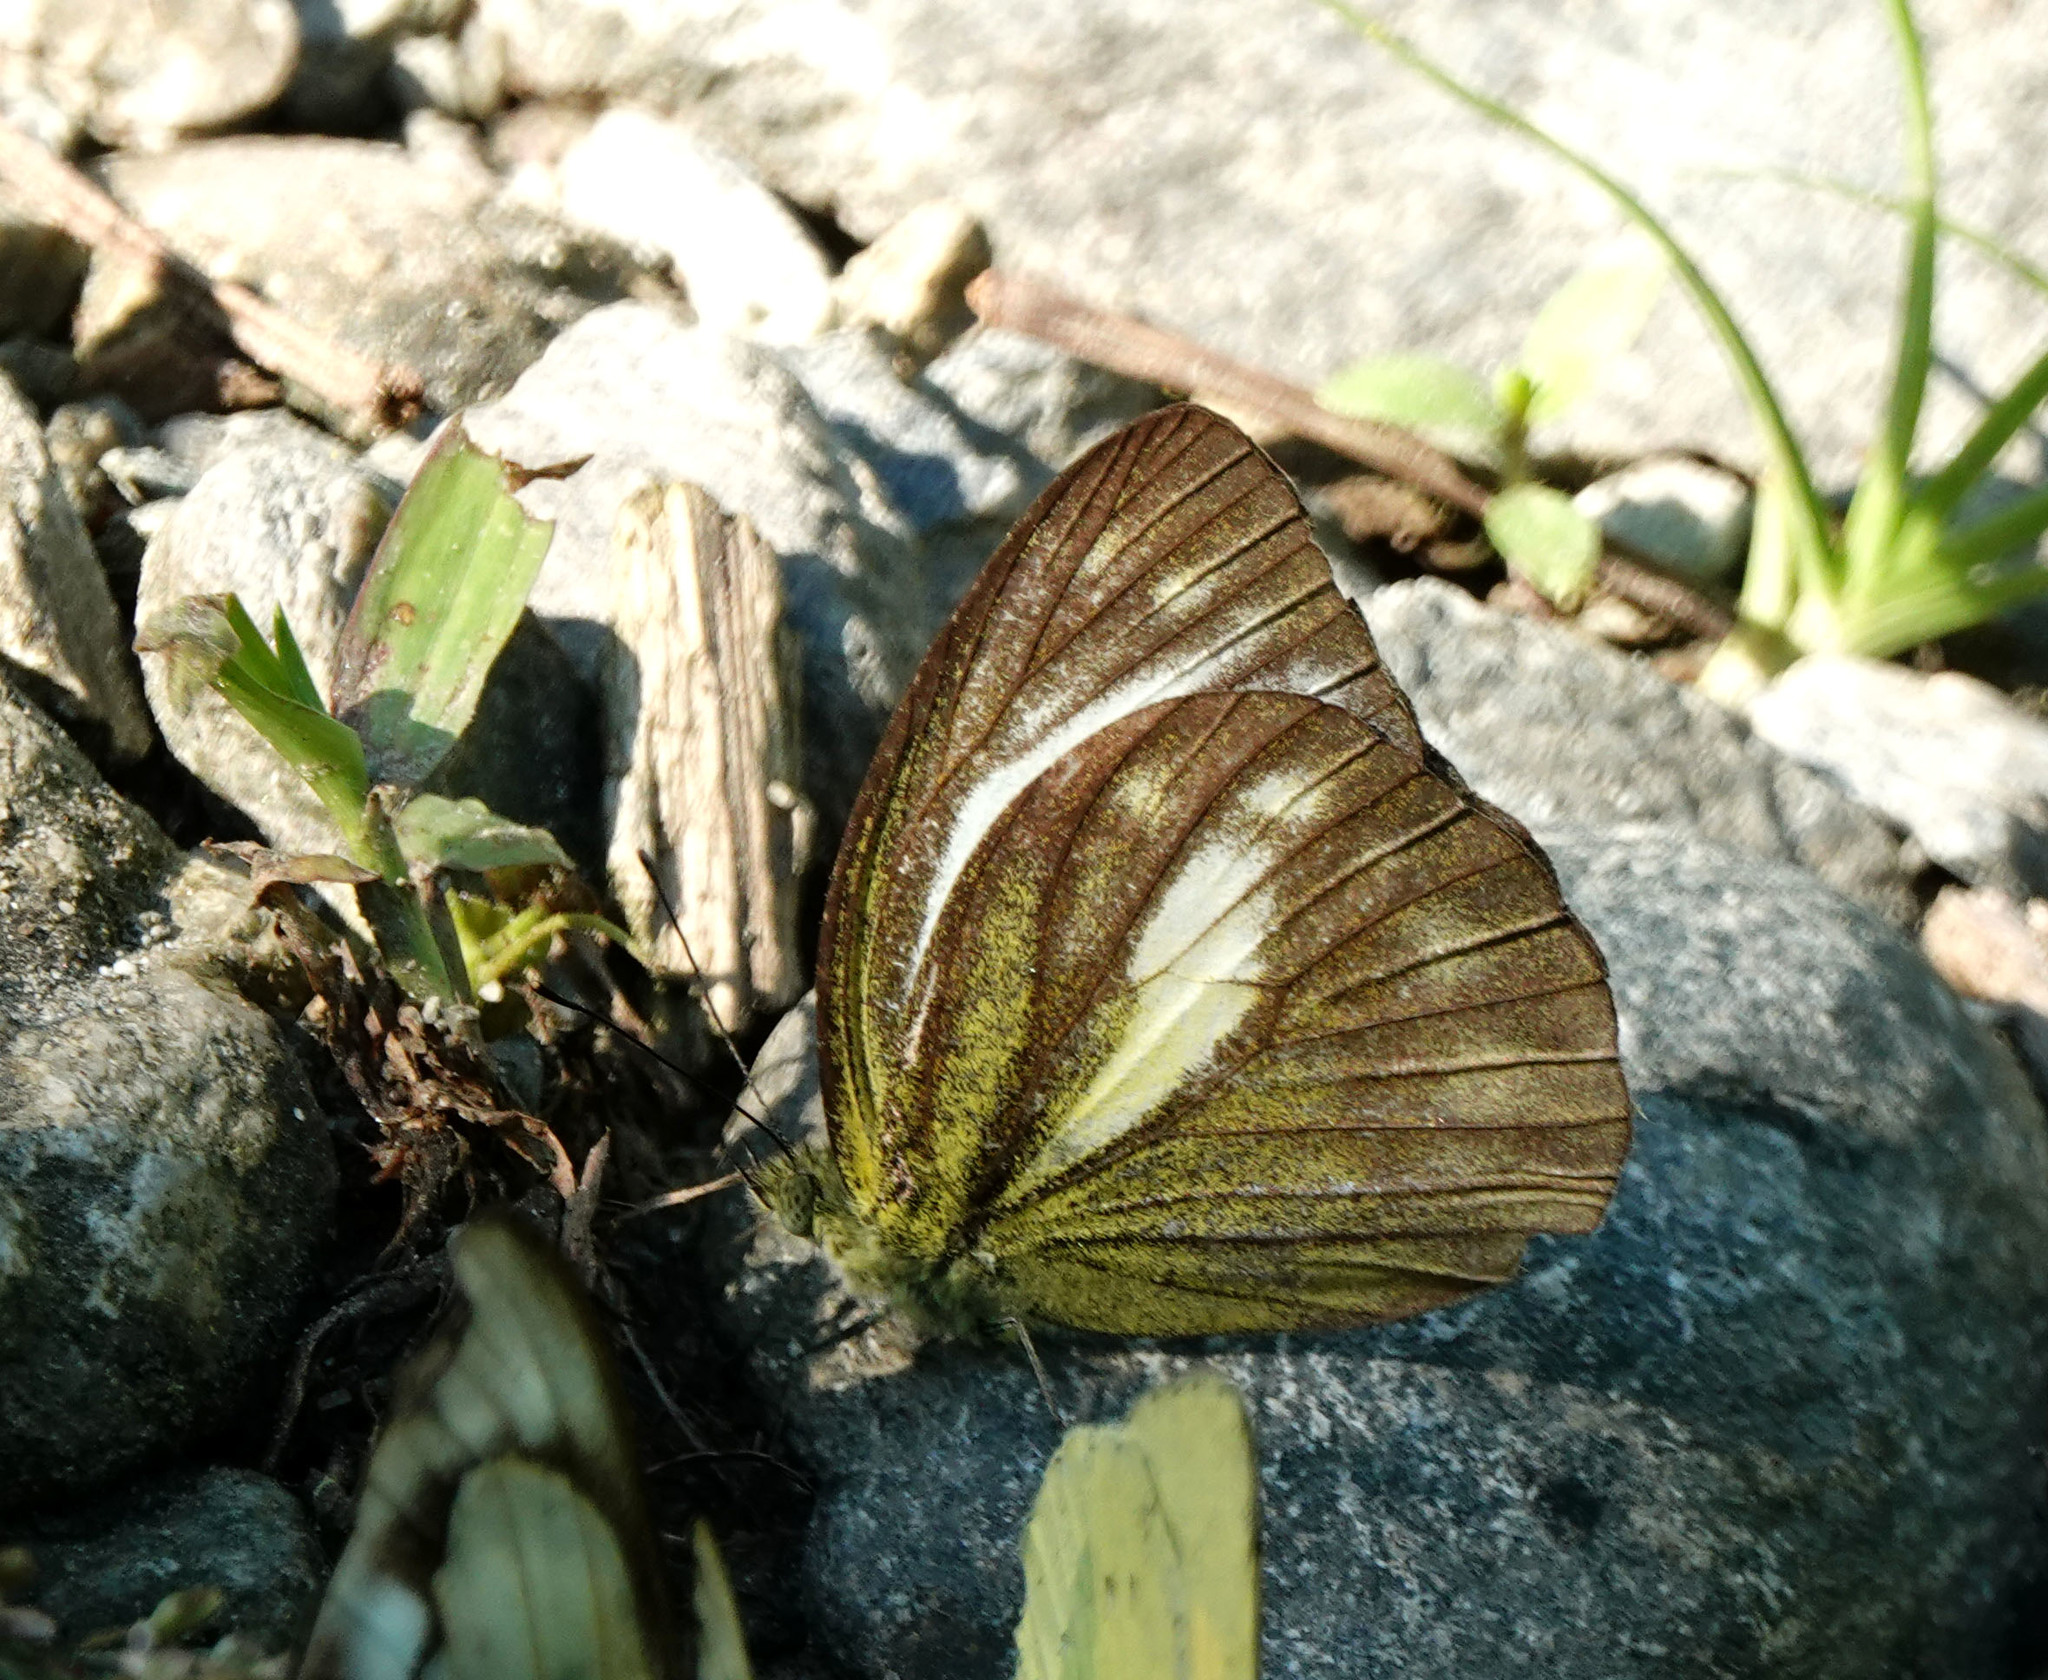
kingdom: Animalia
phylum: Arthropoda
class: Insecta
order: Lepidoptera
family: Pieridae
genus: Cepora
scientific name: Cepora nadina
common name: Lesser gull
